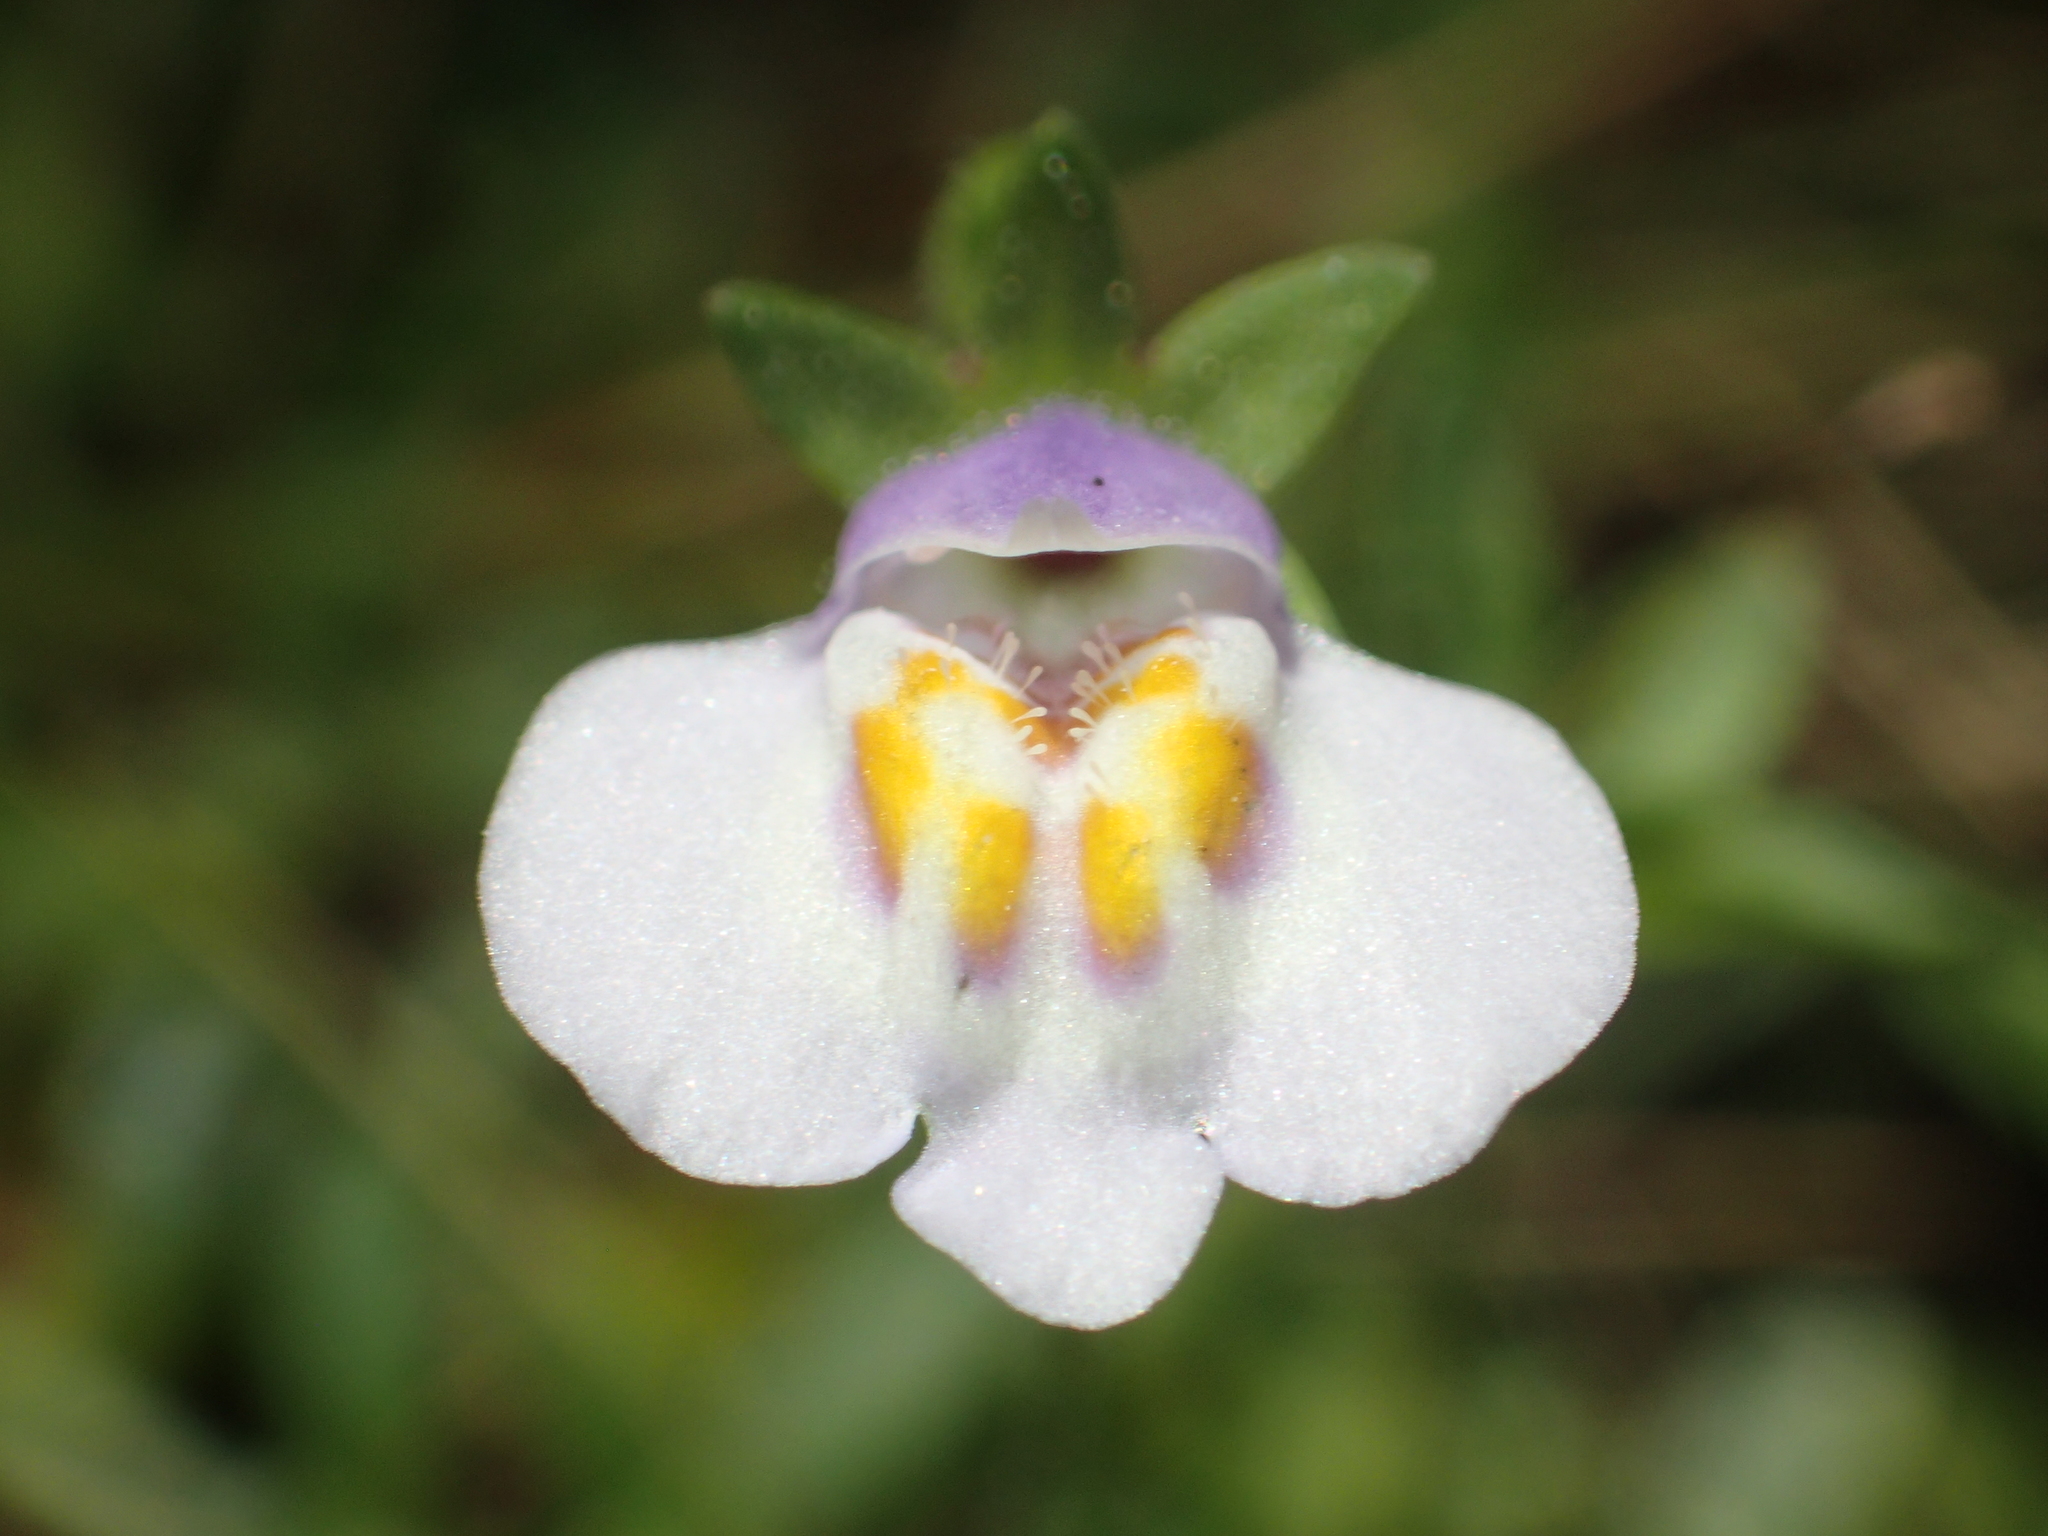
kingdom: Plantae
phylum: Tracheophyta
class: Magnoliopsida
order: Lamiales
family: Mazaceae
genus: Mazus
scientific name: Mazus pumilus
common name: Japanese mazus
